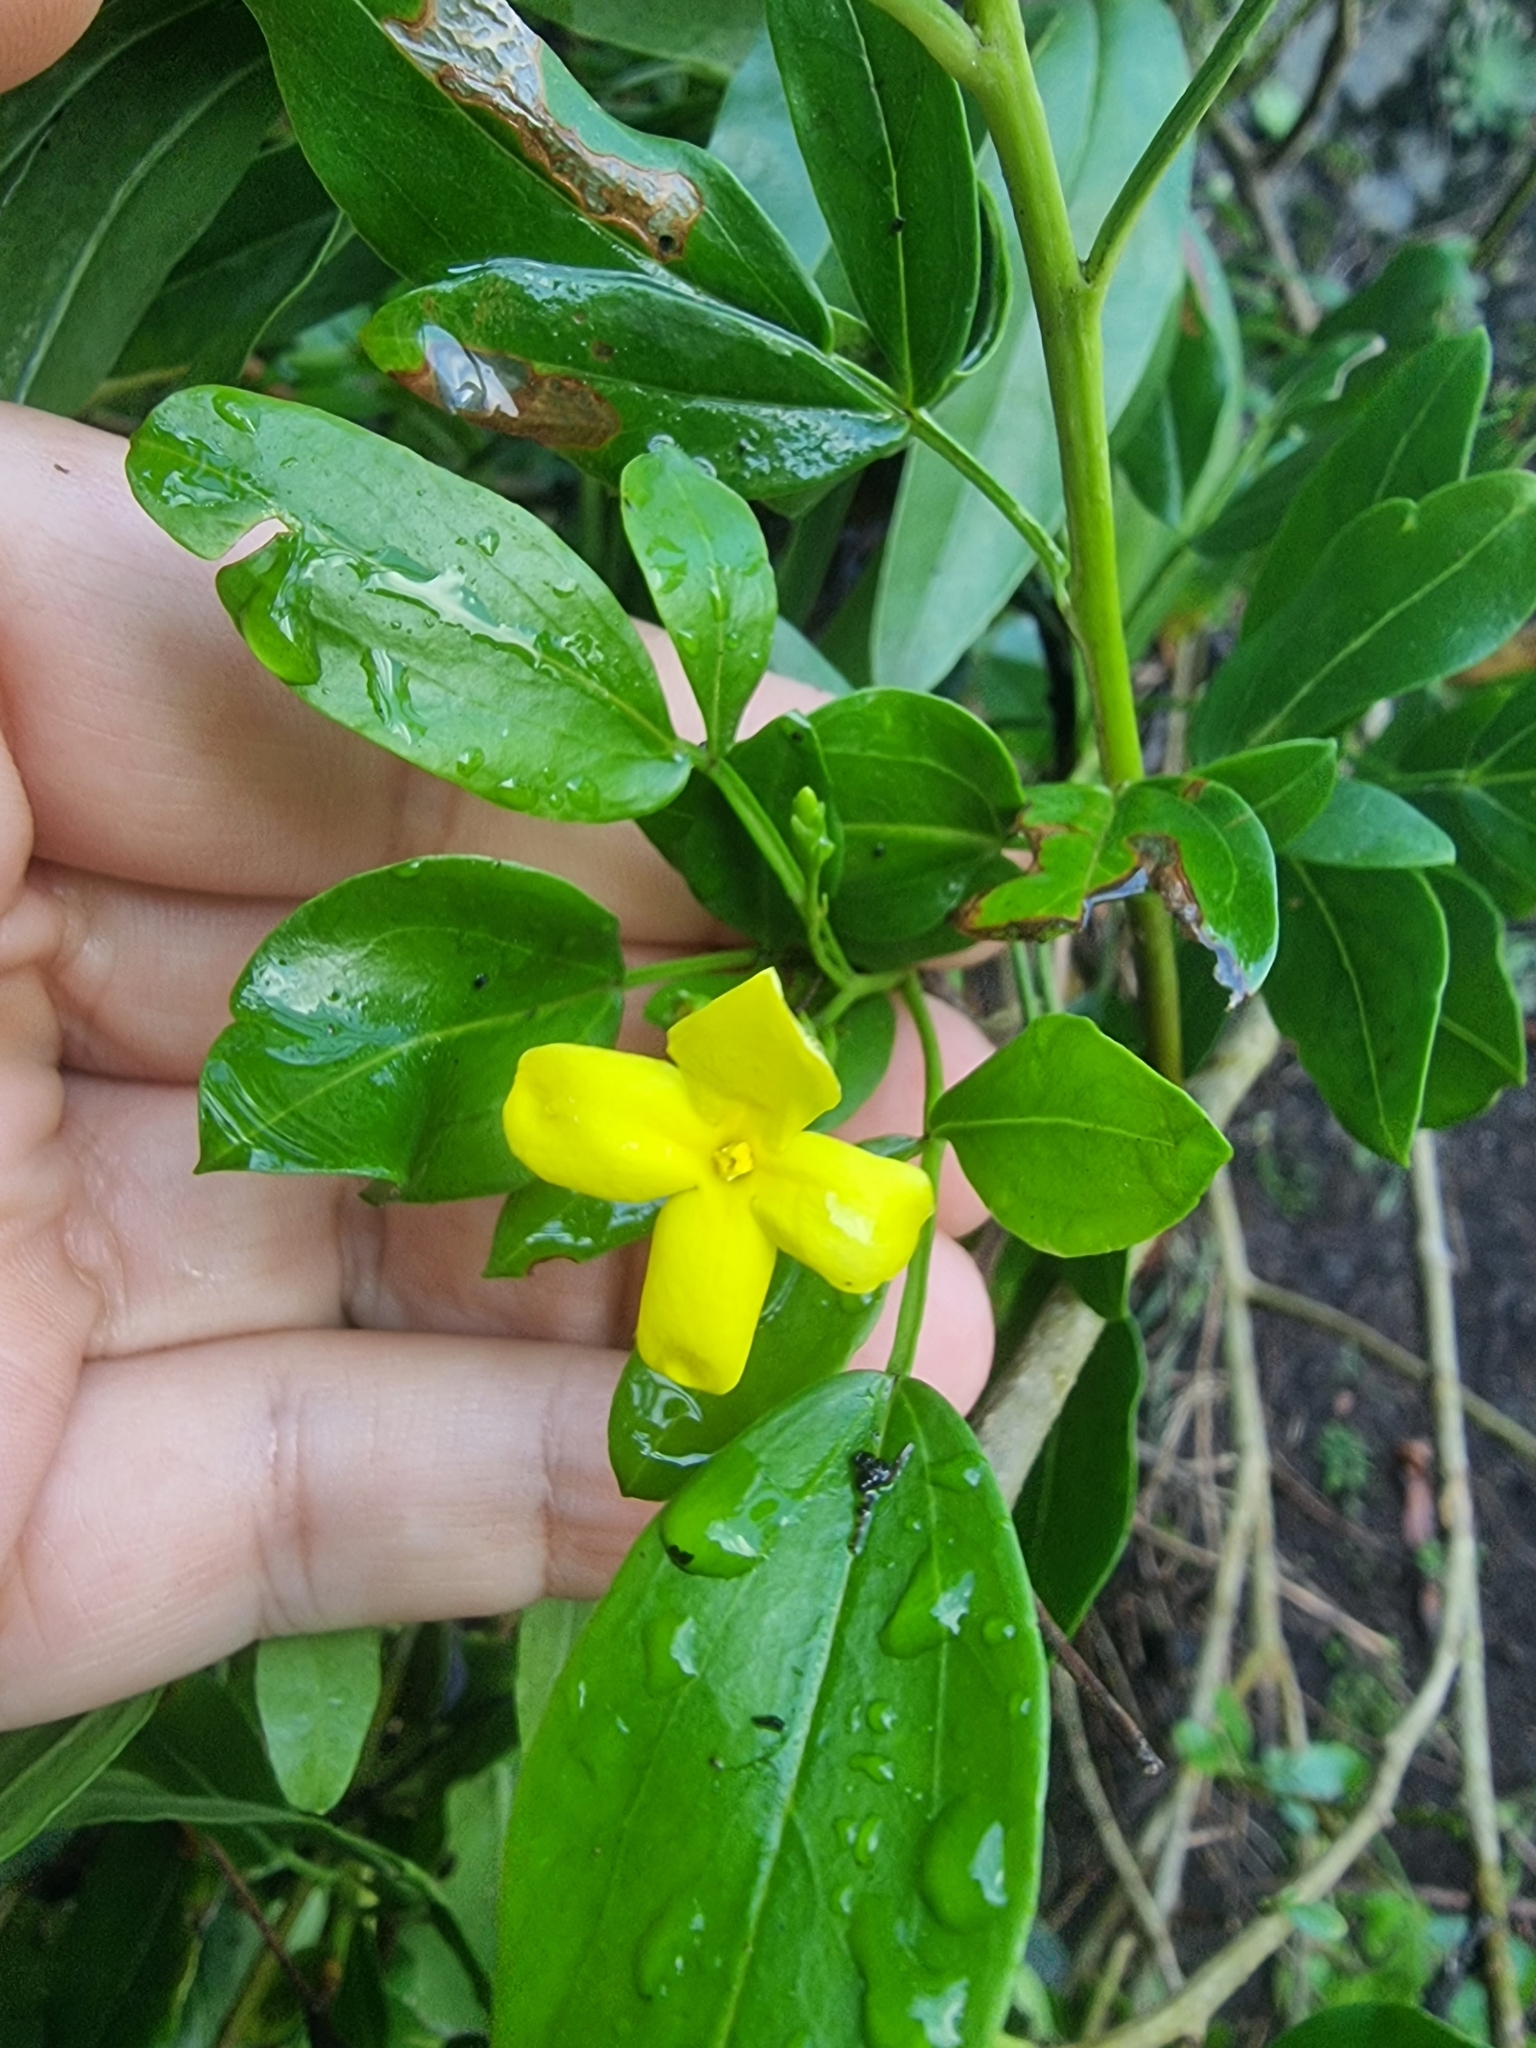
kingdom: Plantae
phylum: Tracheophyta
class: Magnoliopsida
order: Lamiales
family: Oleaceae
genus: Chrysojasminum
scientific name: Chrysojasminum odoratissimum
